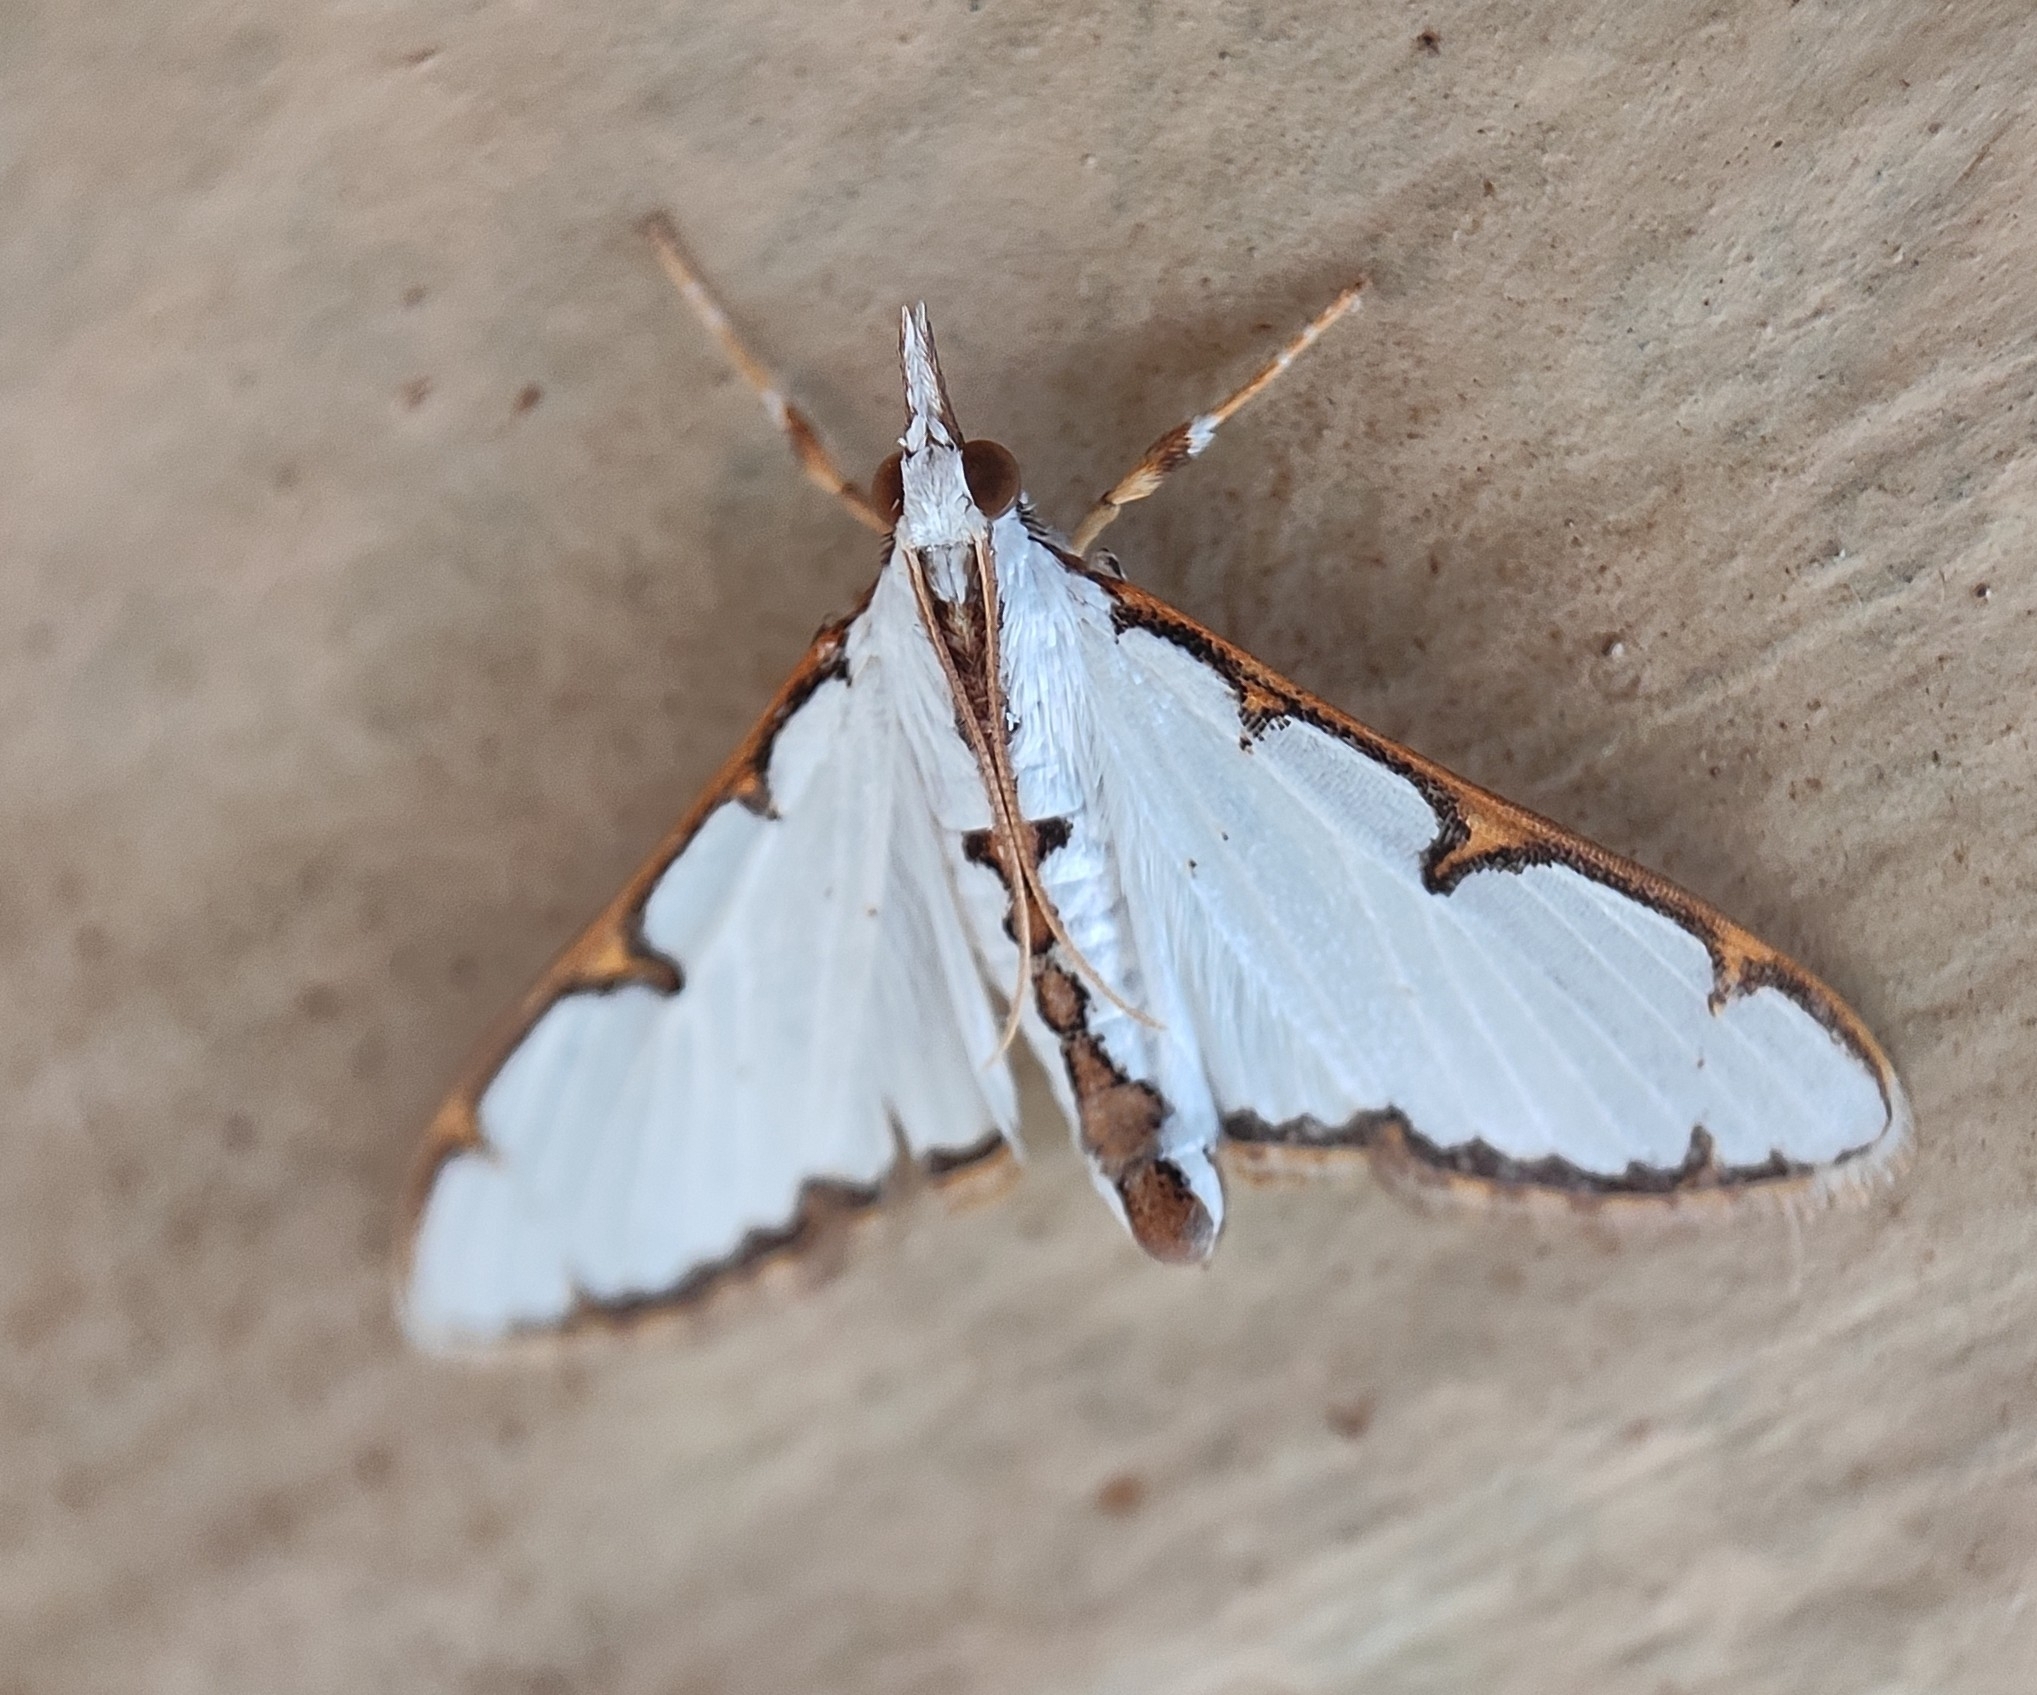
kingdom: Animalia
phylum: Arthropoda
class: Insecta
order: Lepidoptera
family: Crambidae
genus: Cirrhochrista
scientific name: Cirrhochrista brizoalis
